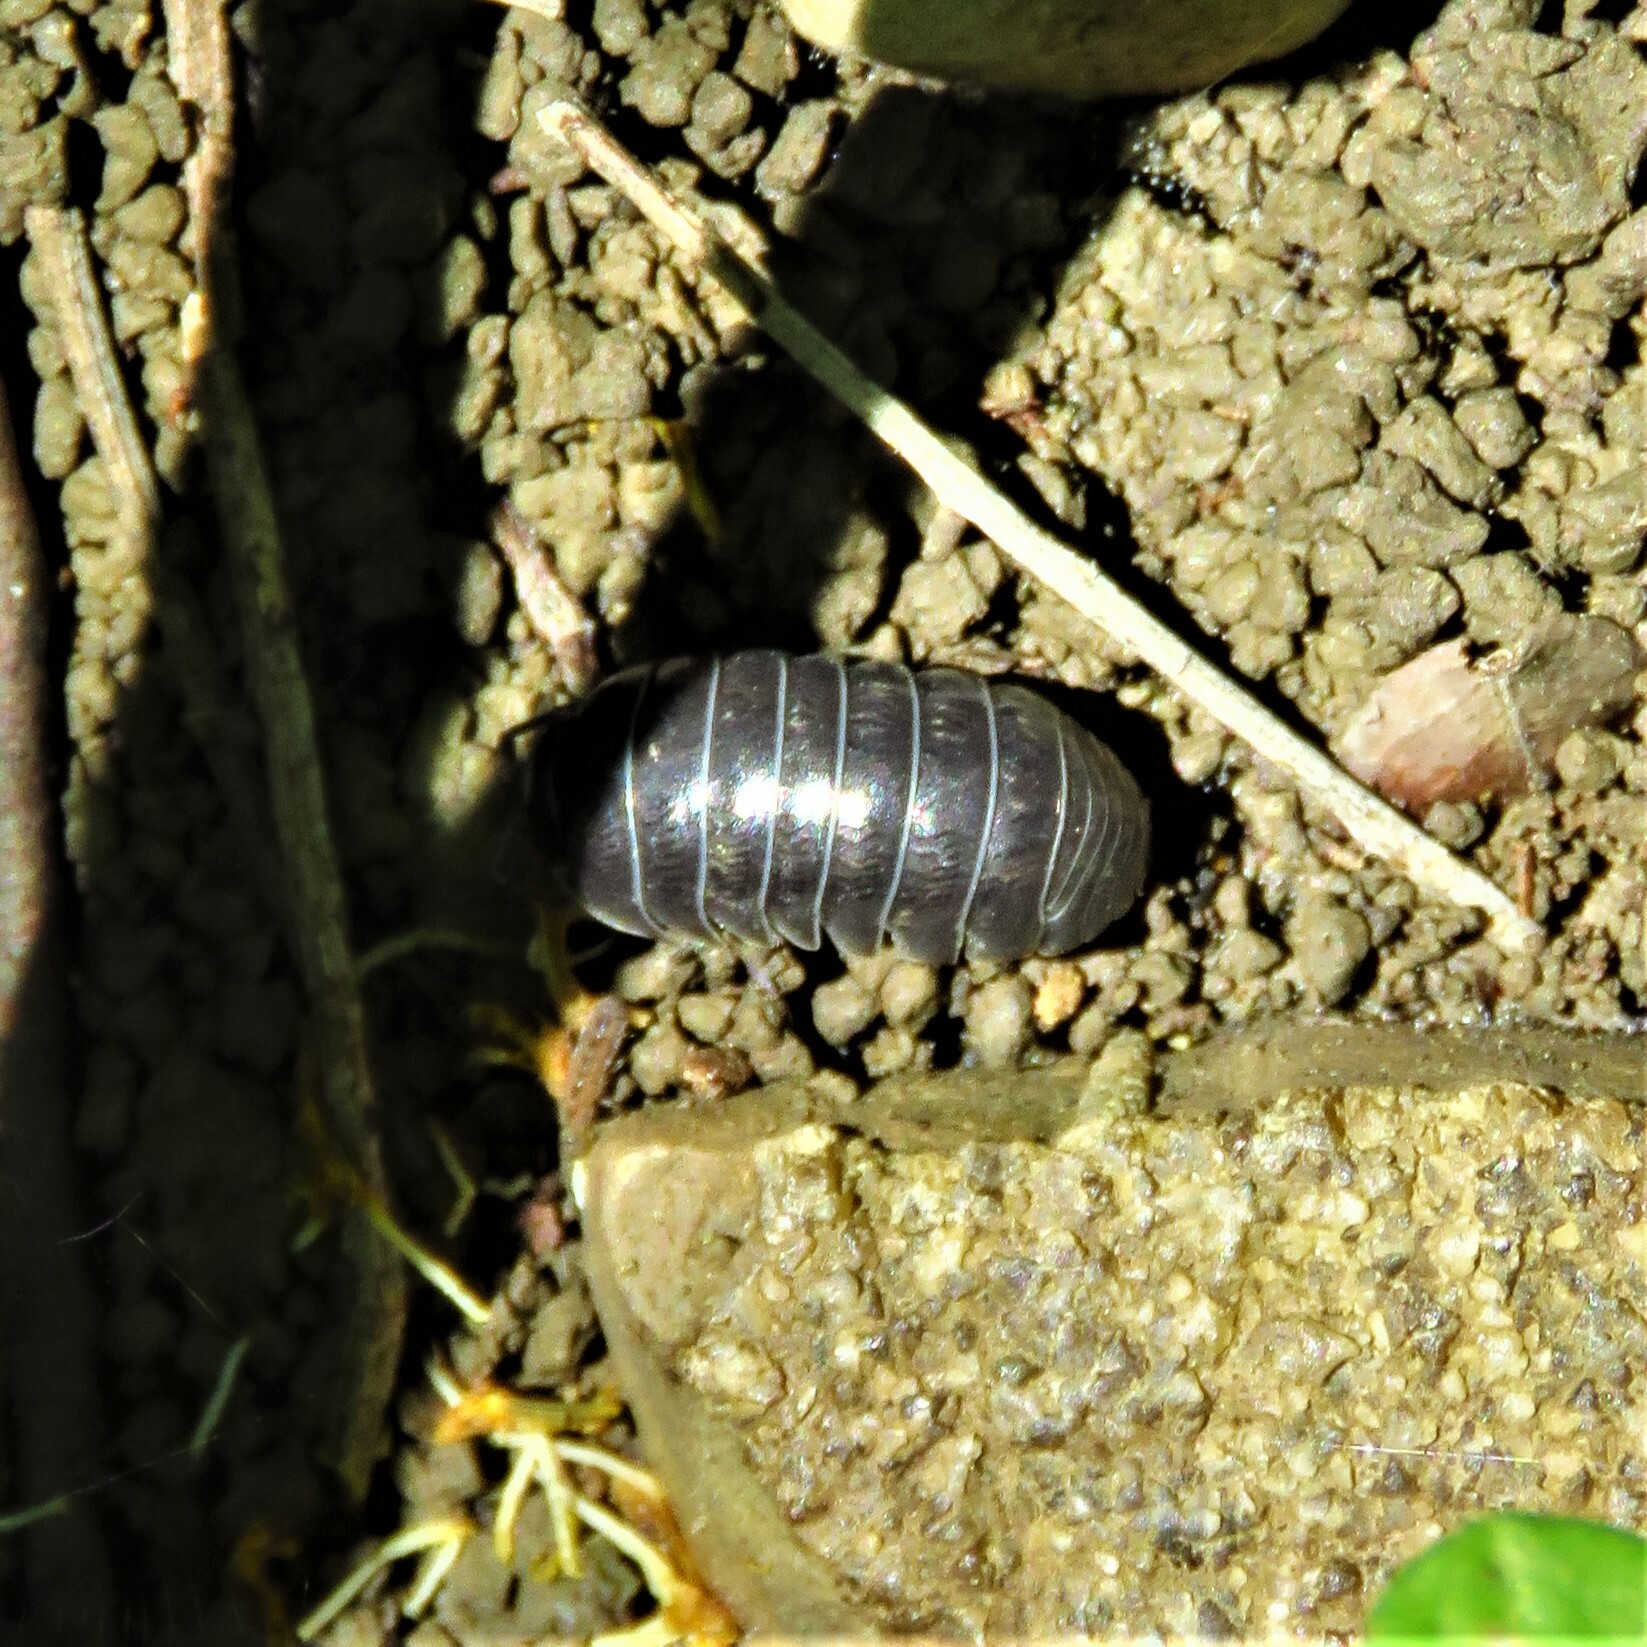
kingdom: Animalia
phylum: Arthropoda
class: Malacostraca
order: Isopoda
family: Armadillidiidae
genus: Armadillidium
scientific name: Armadillidium vulgare
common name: Common pill woodlouse
